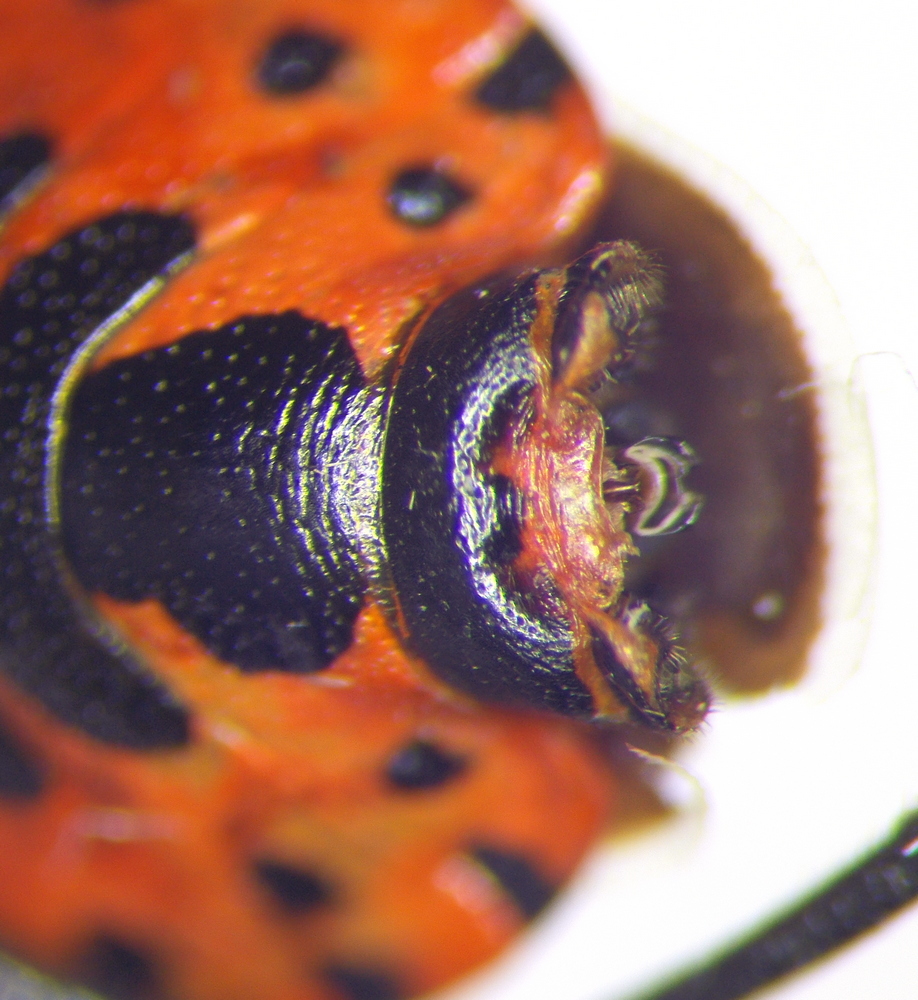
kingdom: Animalia
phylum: Arthropoda
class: Insecta
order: Hemiptera
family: Pentatomidae
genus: Eurydema
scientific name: Eurydema ventralis
